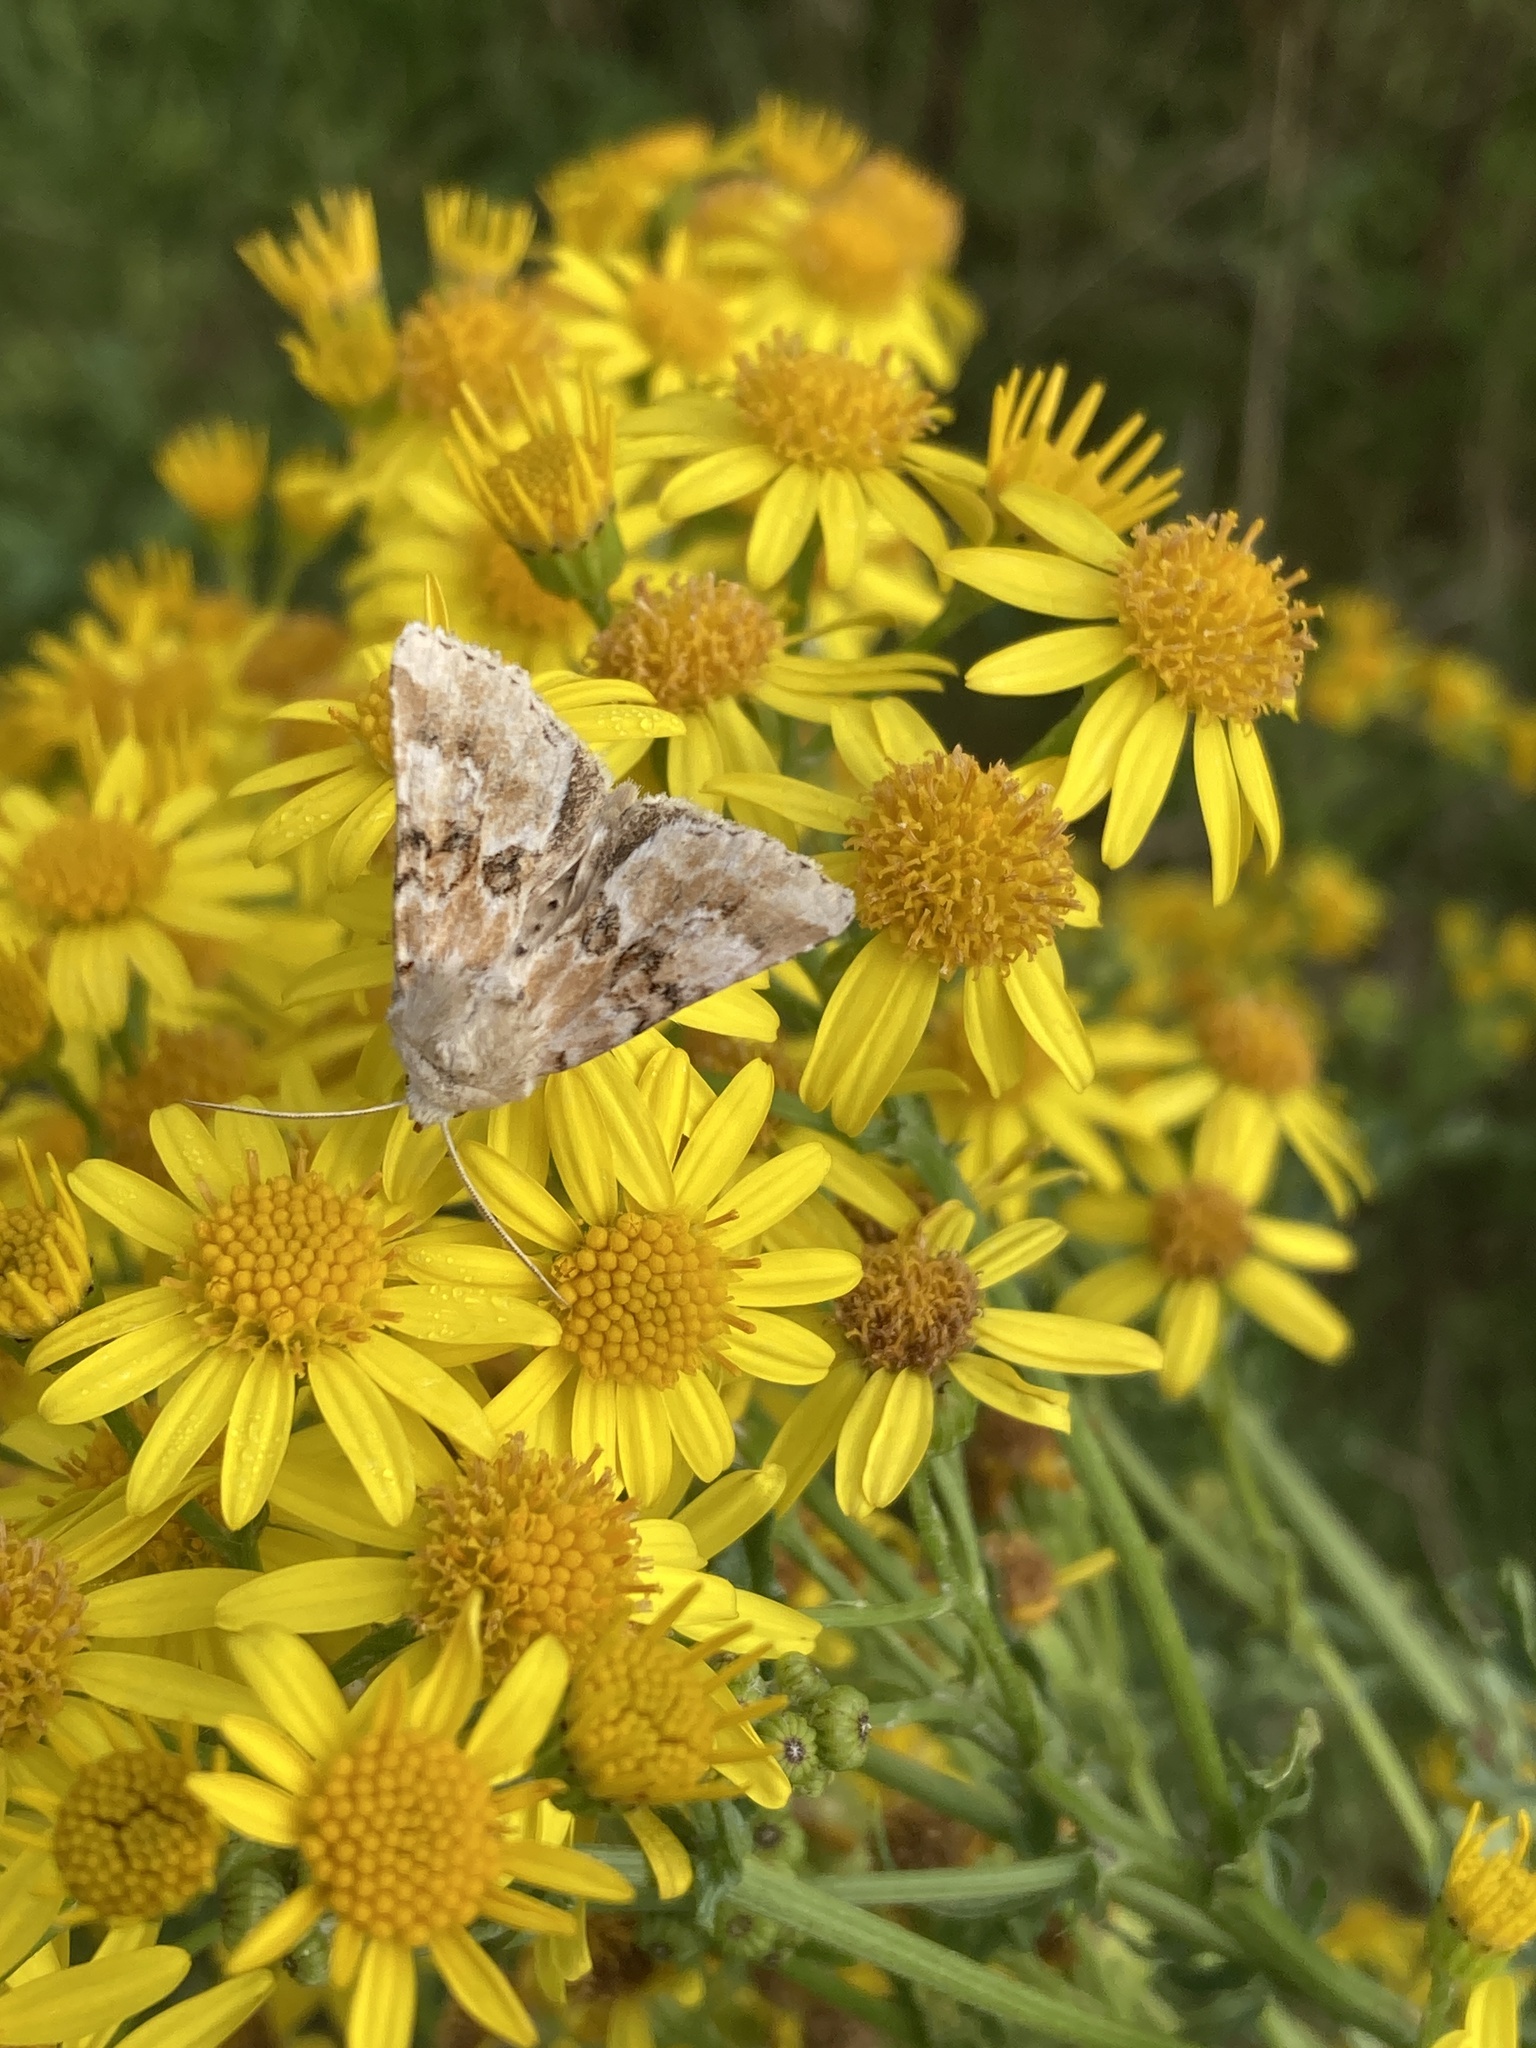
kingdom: Animalia
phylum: Arthropoda
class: Insecta
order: Lepidoptera
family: Noctuidae
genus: Eremobia
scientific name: Eremobia ochroleuca
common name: Dusky sallow
